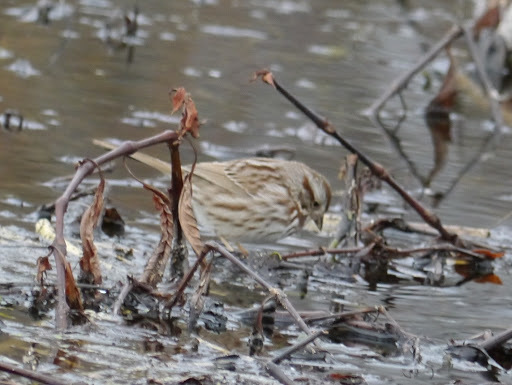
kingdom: Animalia
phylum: Chordata
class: Aves
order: Passeriformes
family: Passerellidae
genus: Melospiza
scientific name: Melospiza melodia
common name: Song sparrow
